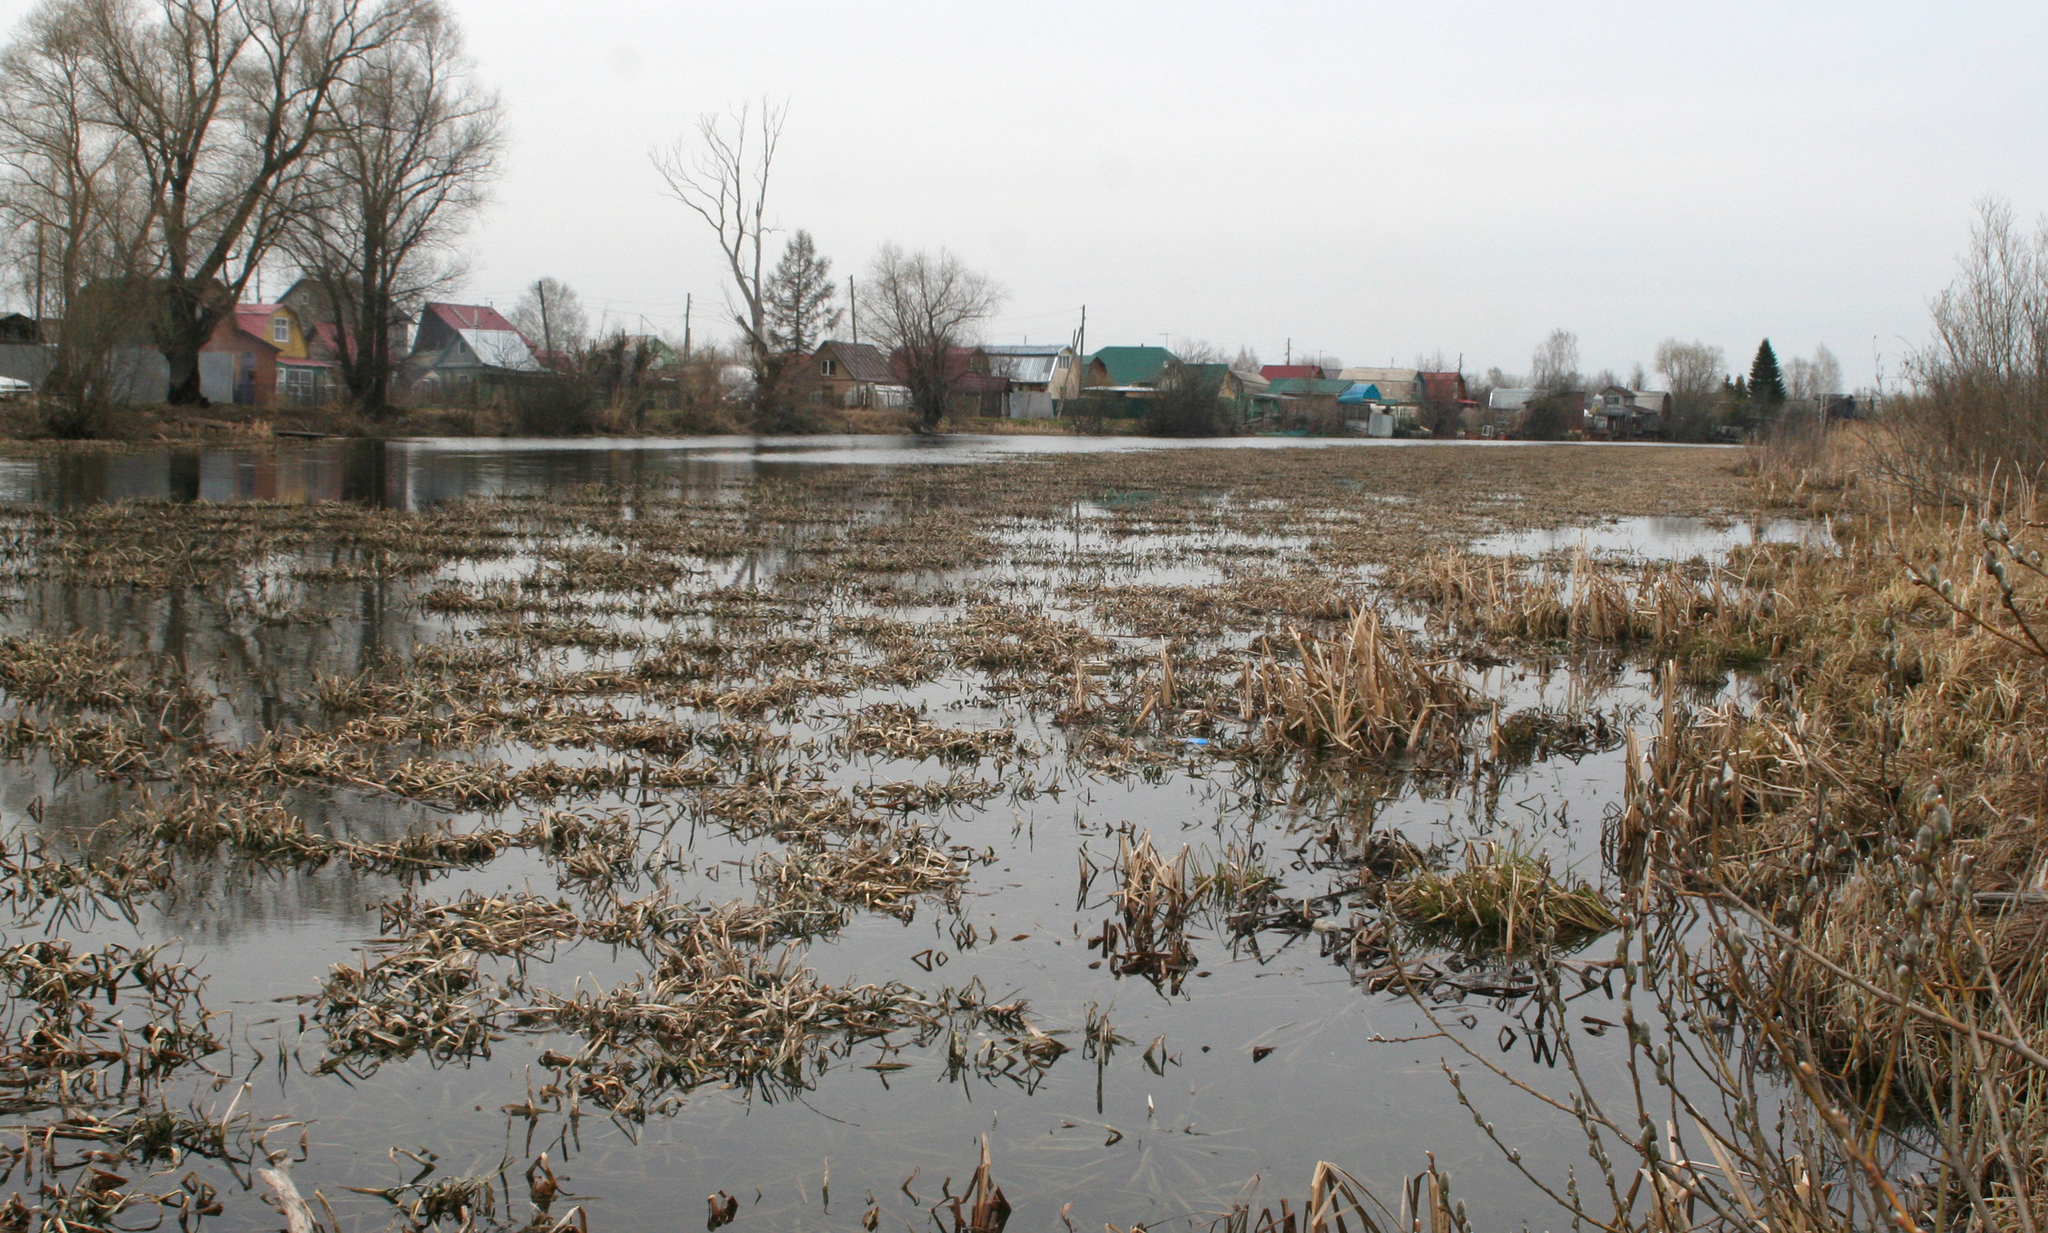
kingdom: Plantae
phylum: Tracheophyta
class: Liliopsida
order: Alismatales
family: Hydrocharitaceae
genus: Stratiotes
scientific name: Stratiotes aloides
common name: Water-soldier
